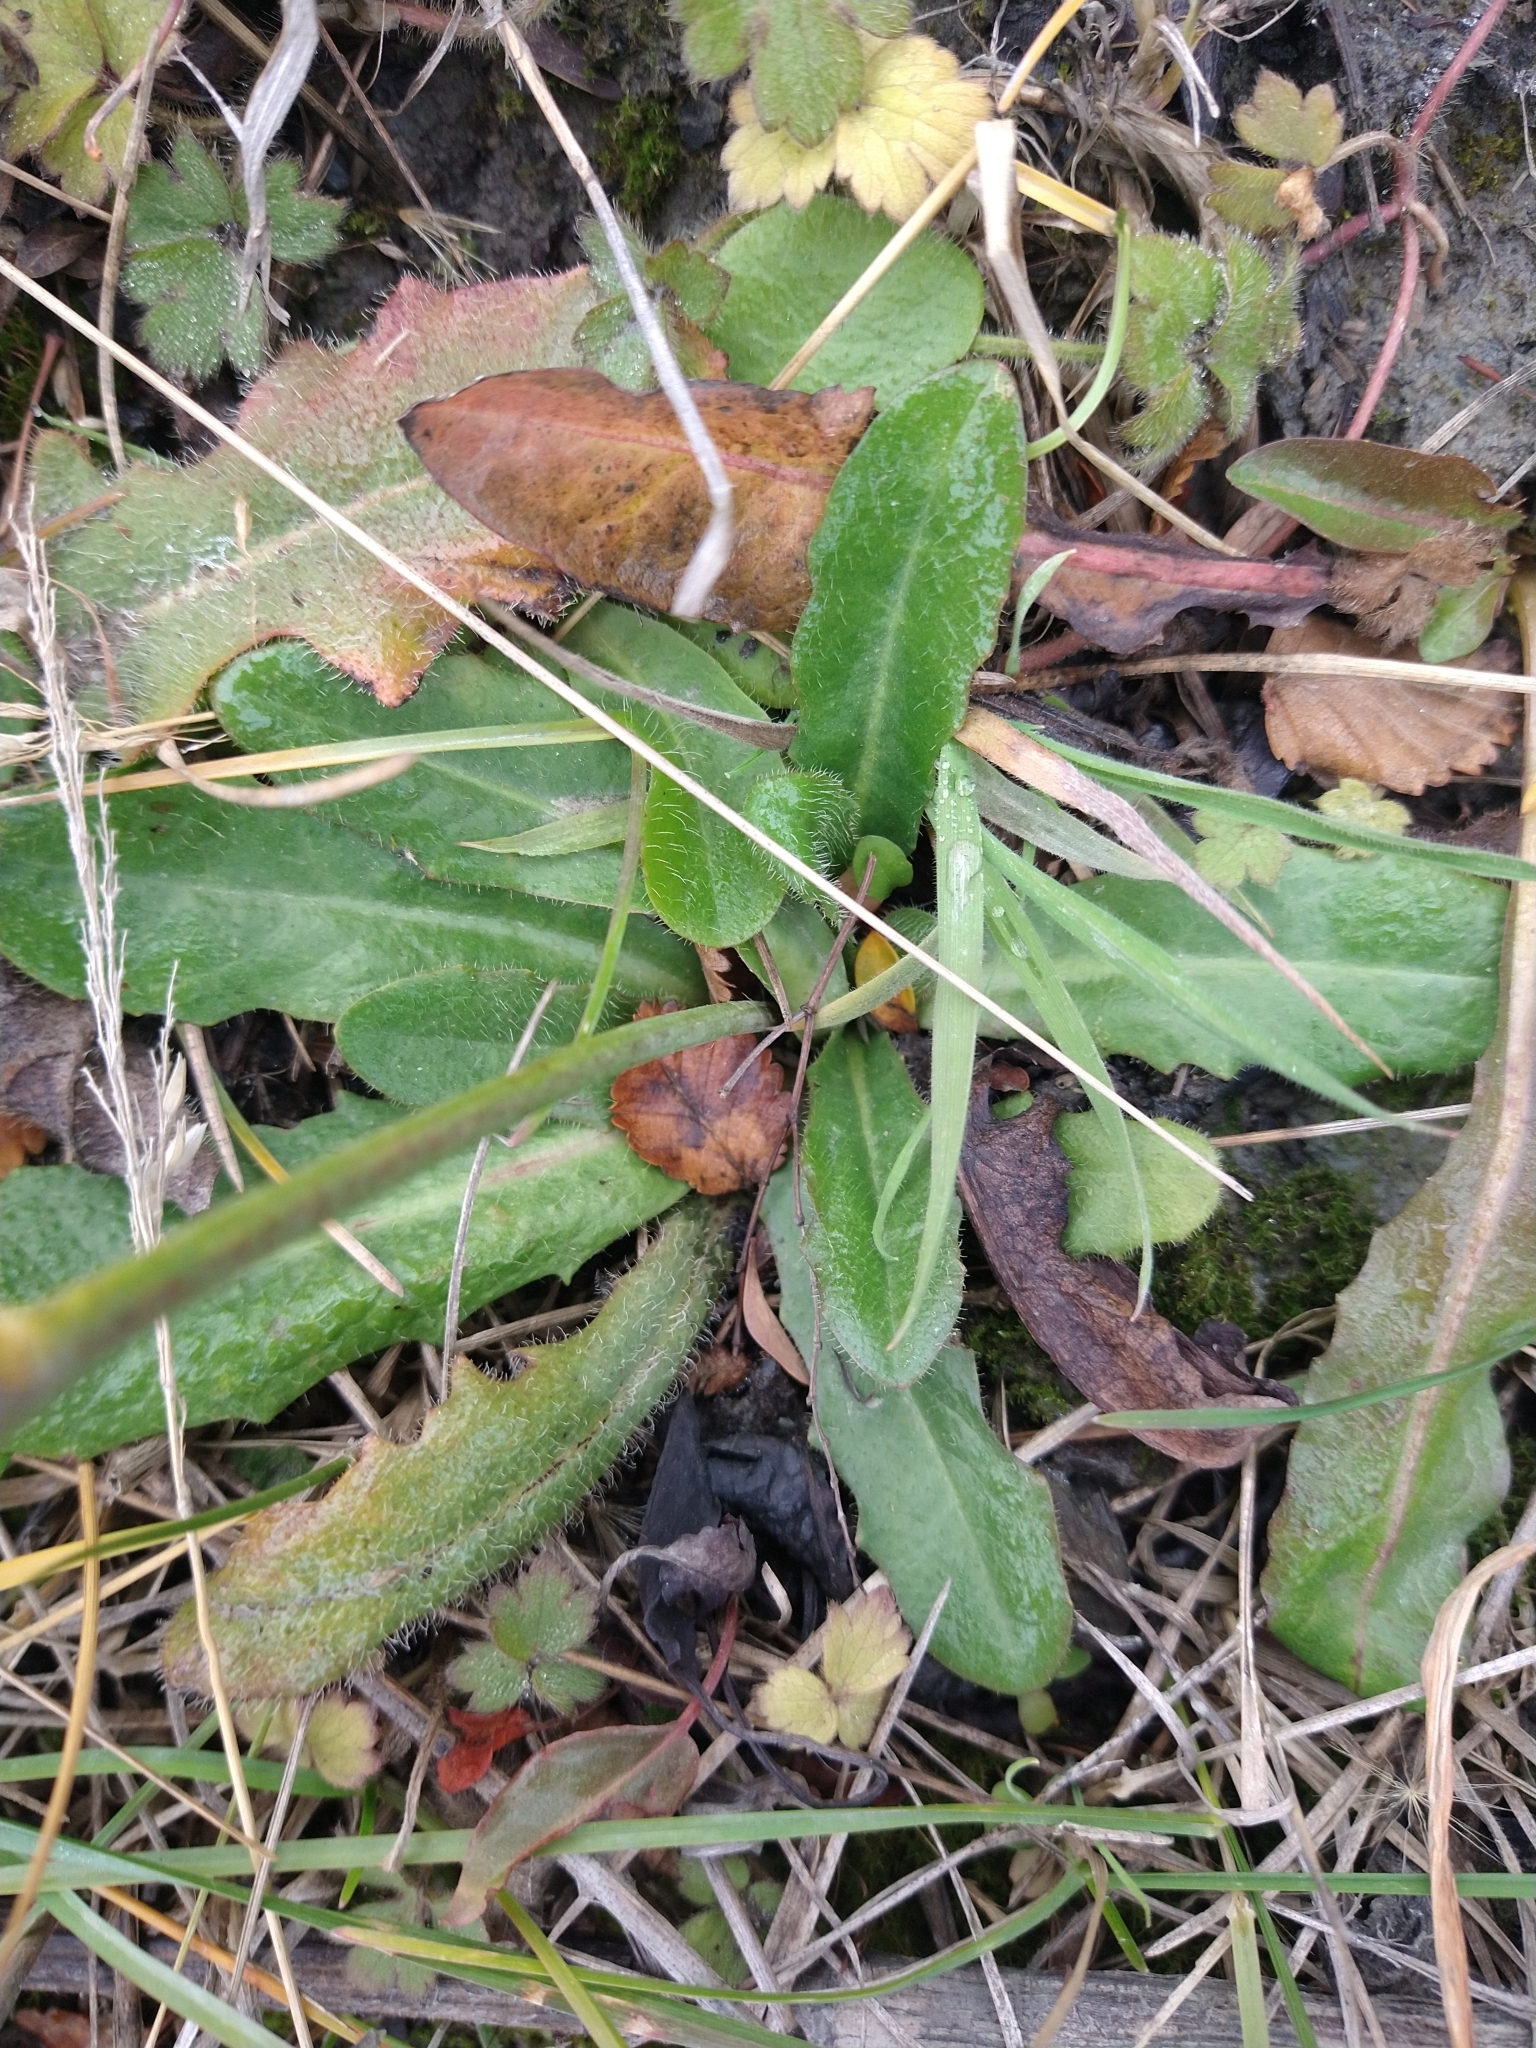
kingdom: Plantae
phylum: Tracheophyta
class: Magnoliopsida
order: Asterales
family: Asteraceae
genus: Hypochaeris
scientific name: Hypochaeris radicata
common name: Flatweed
